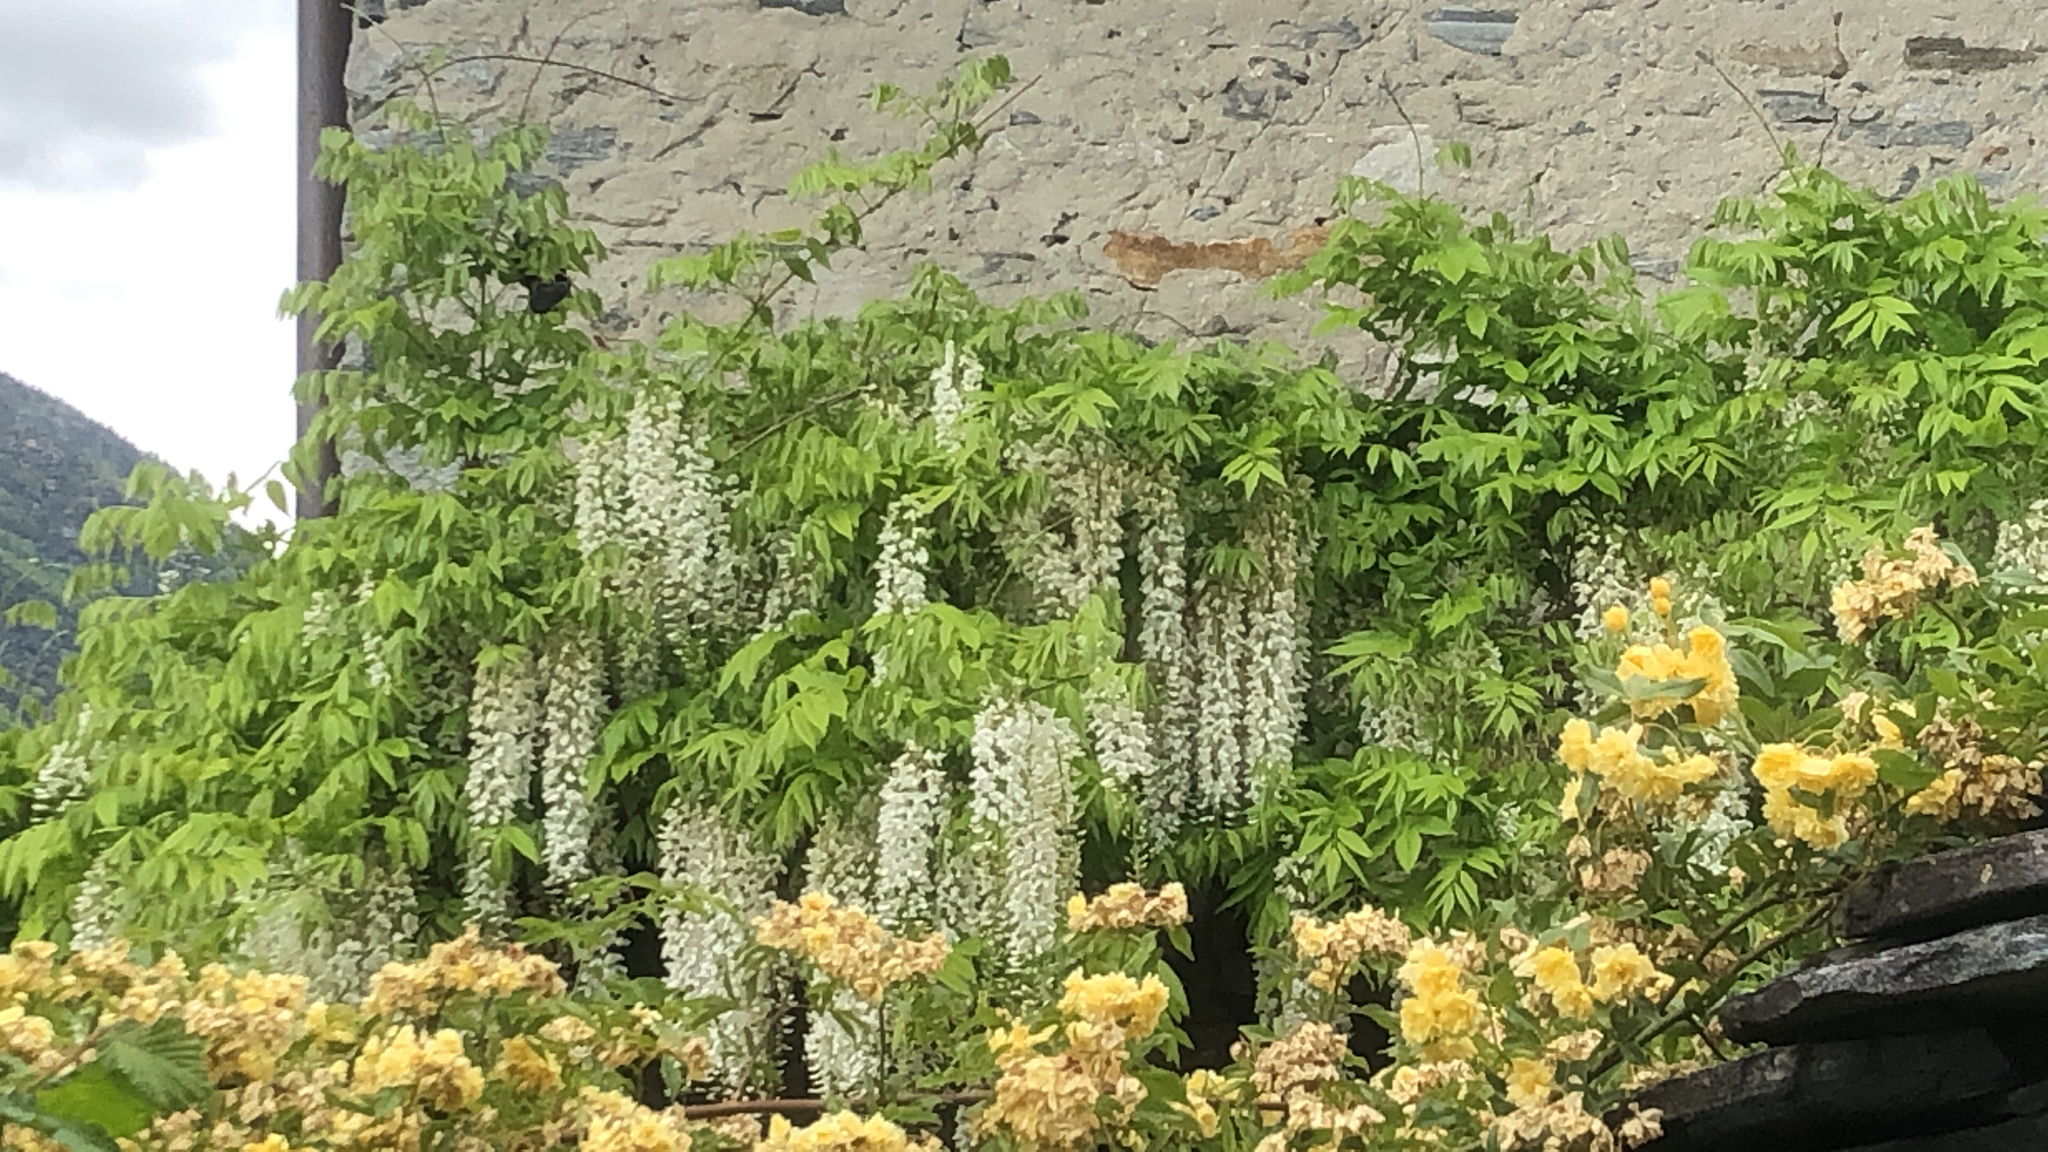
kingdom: Plantae
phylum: Tracheophyta
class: Magnoliopsida
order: Fabales
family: Fabaceae
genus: Wisteria
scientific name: Wisteria floribunda
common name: Japanese wisteria
